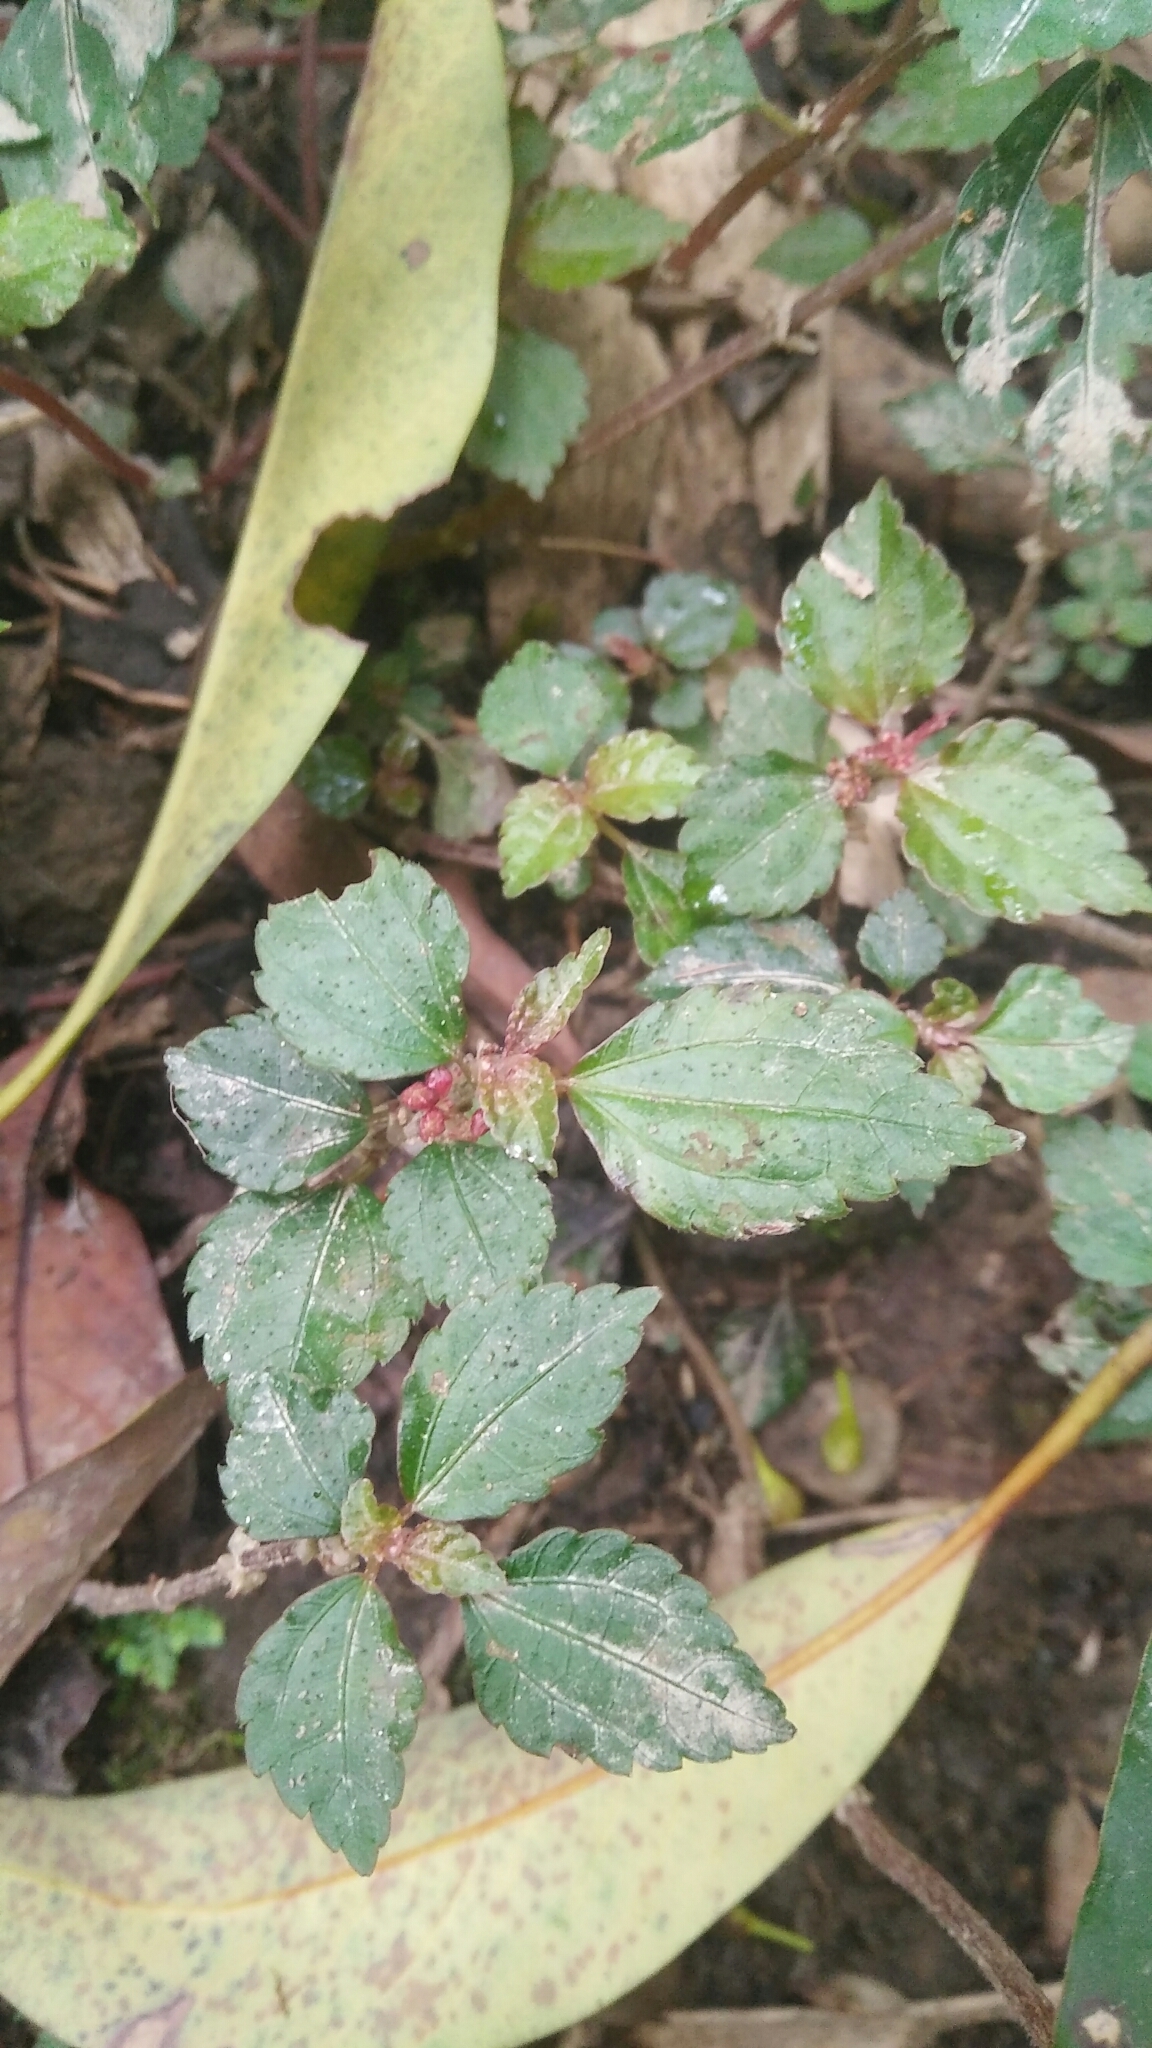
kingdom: Plantae
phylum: Tracheophyta
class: Magnoliopsida
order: Rosales
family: Urticaceae
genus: Pilea
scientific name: Pilea aquarum
